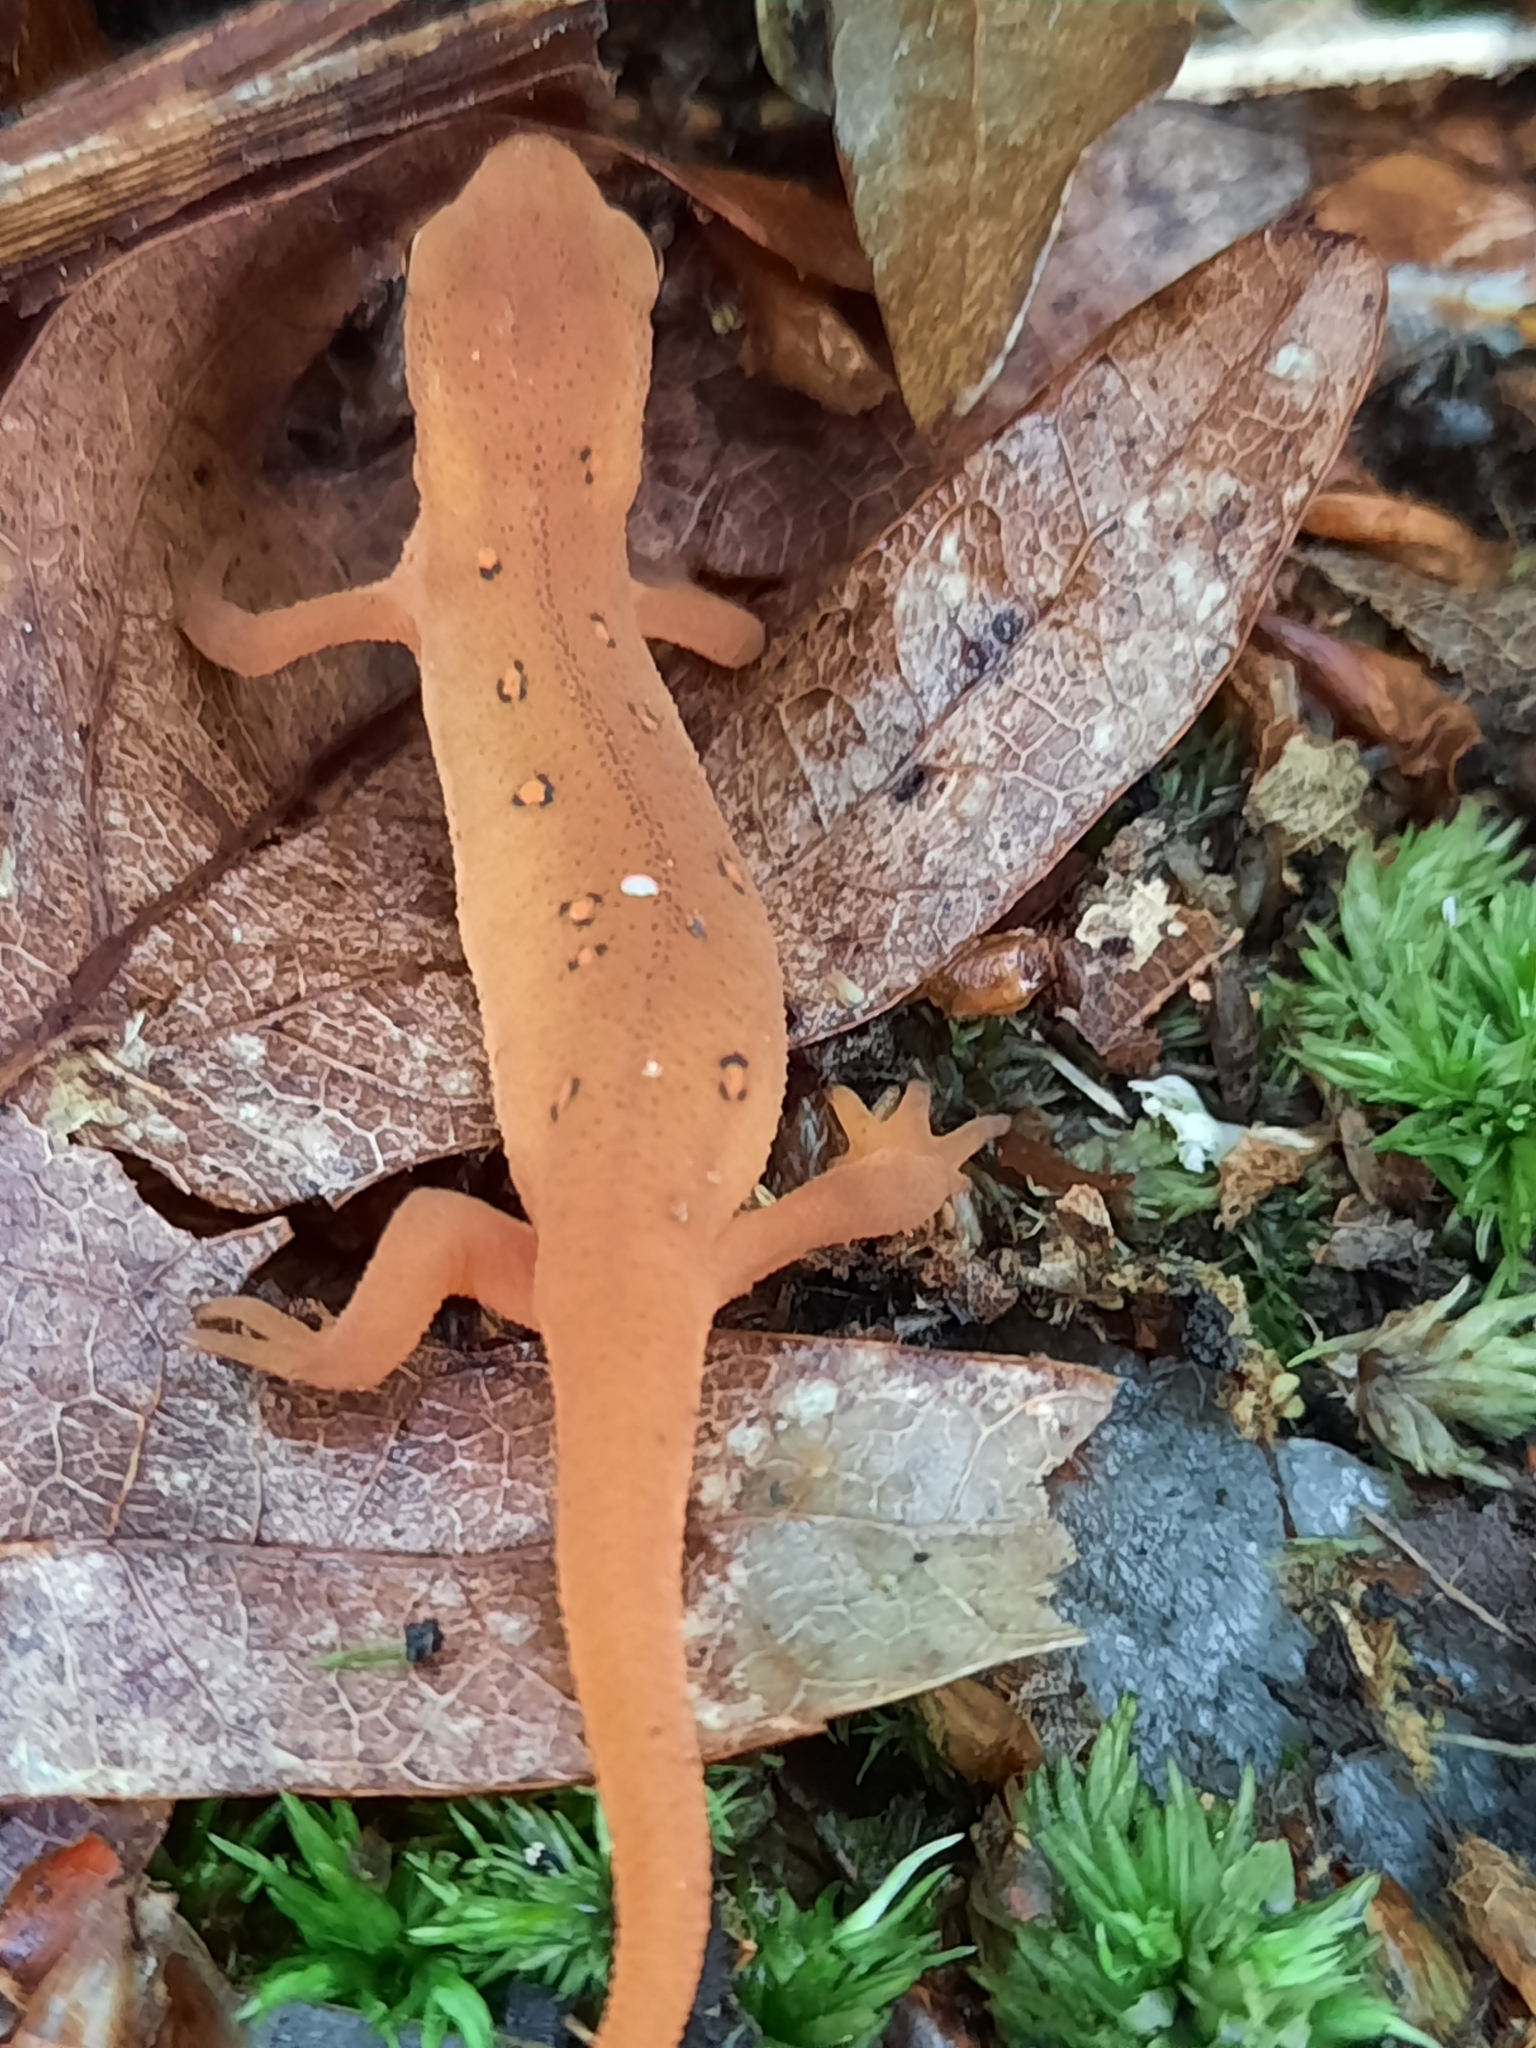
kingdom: Animalia
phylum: Chordata
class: Amphibia
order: Caudata
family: Salamandridae
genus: Notophthalmus
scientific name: Notophthalmus viridescens
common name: Eastern newt
